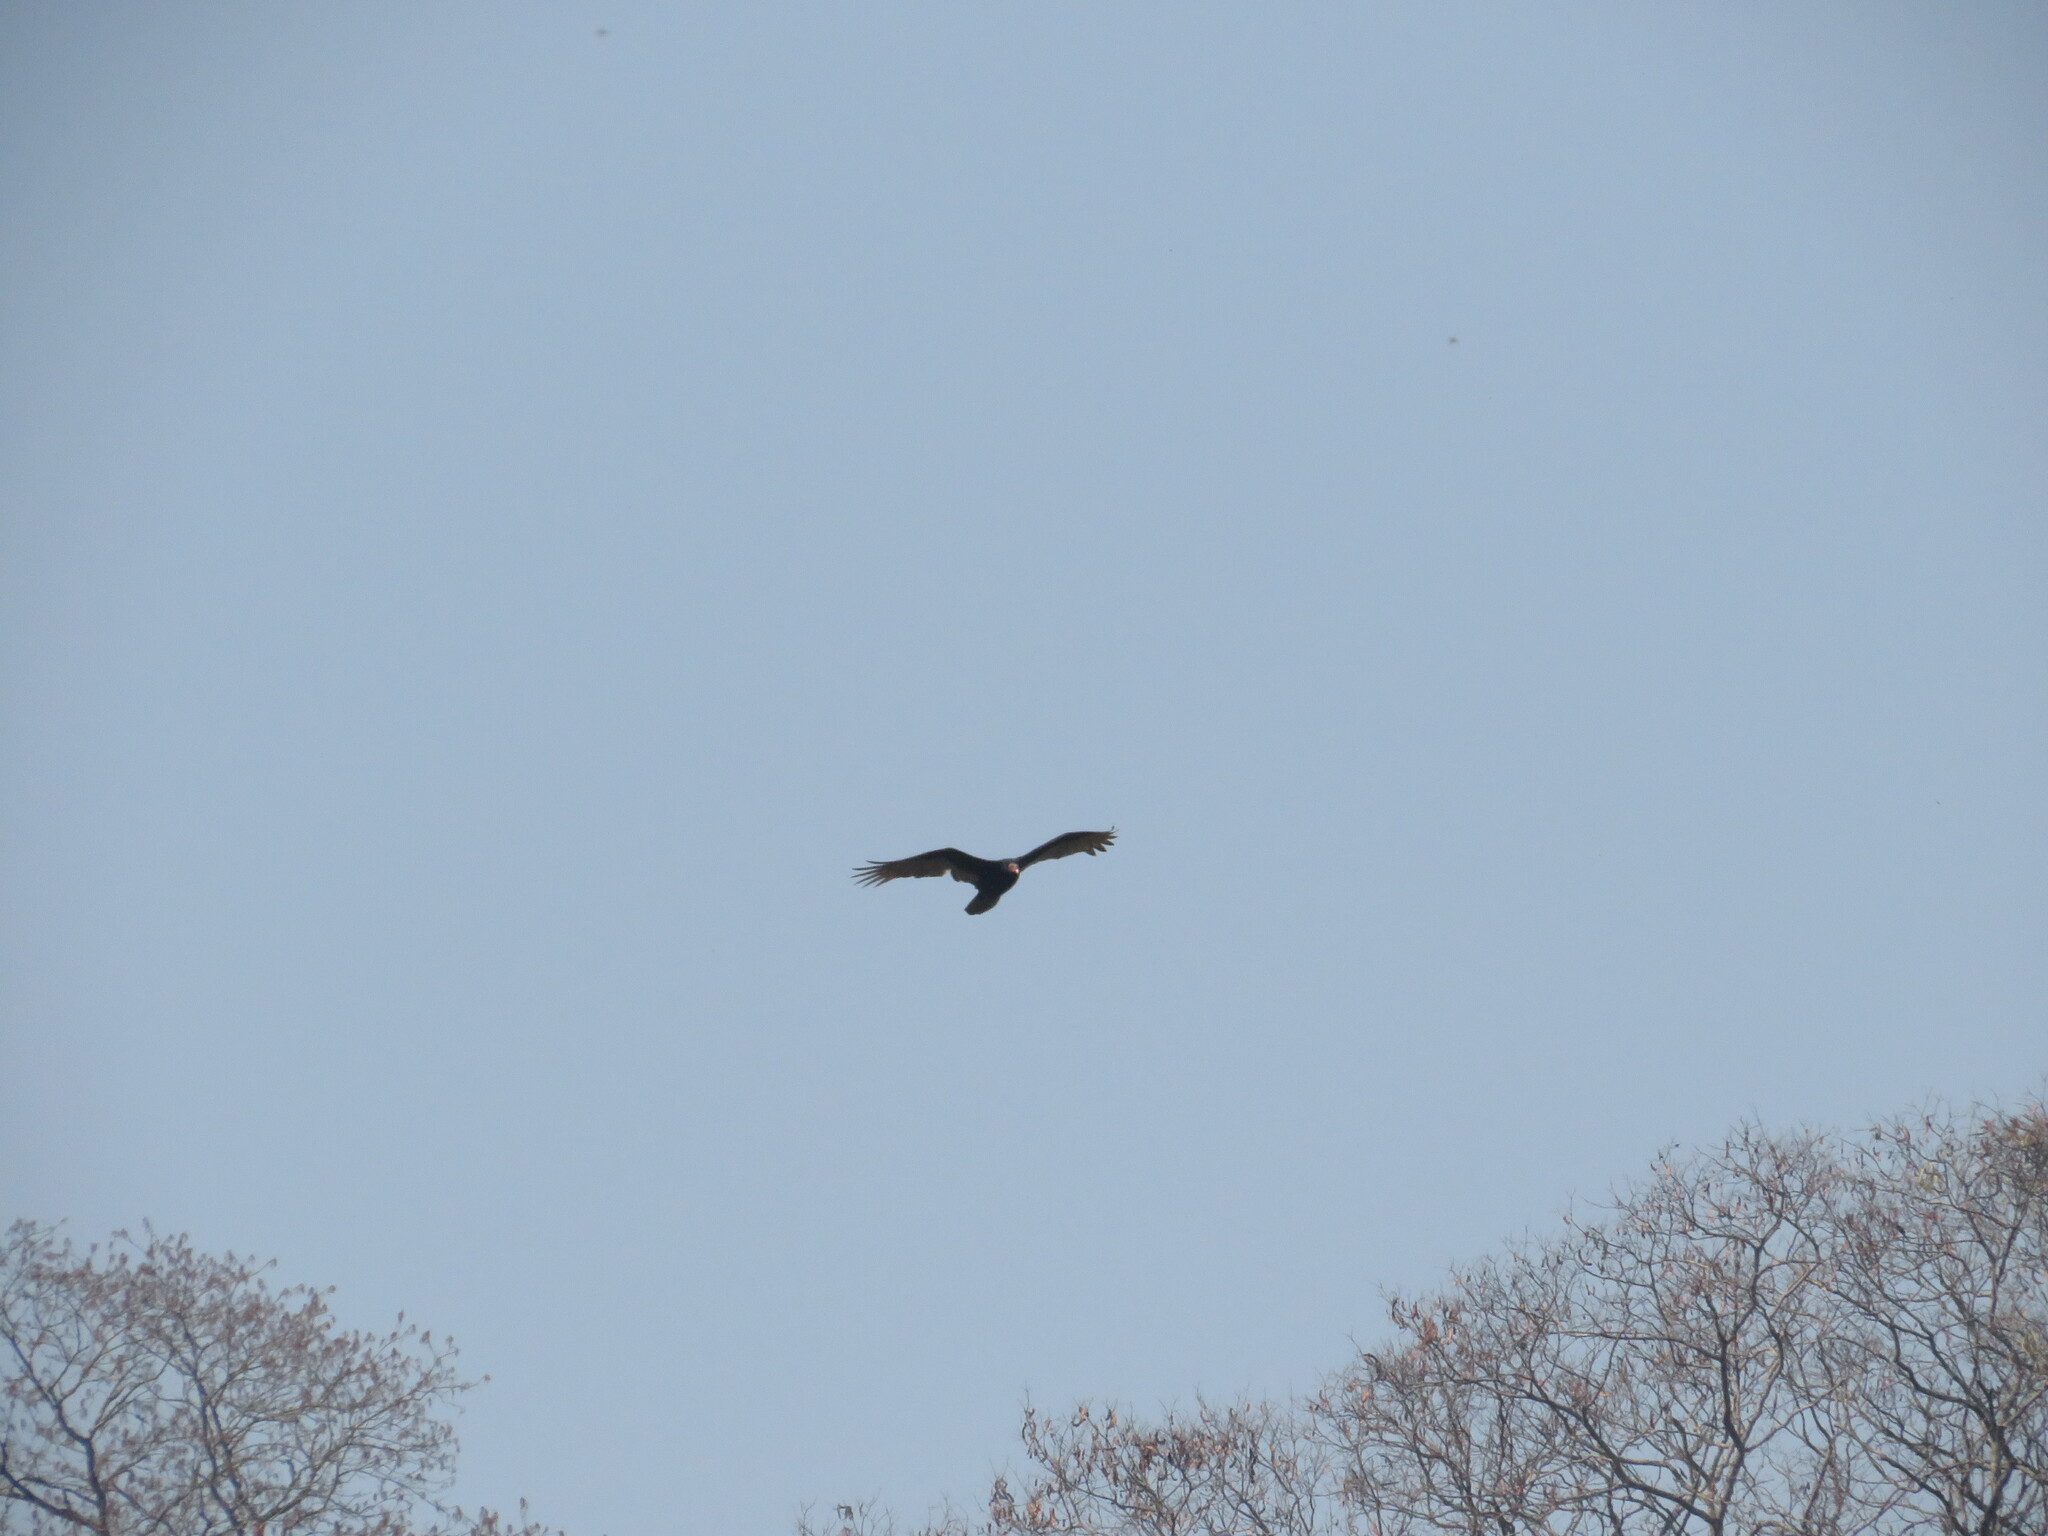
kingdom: Animalia
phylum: Chordata
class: Aves
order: Accipitriformes
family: Cathartidae
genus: Cathartes
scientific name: Cathartes aura
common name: Turkey vulture
